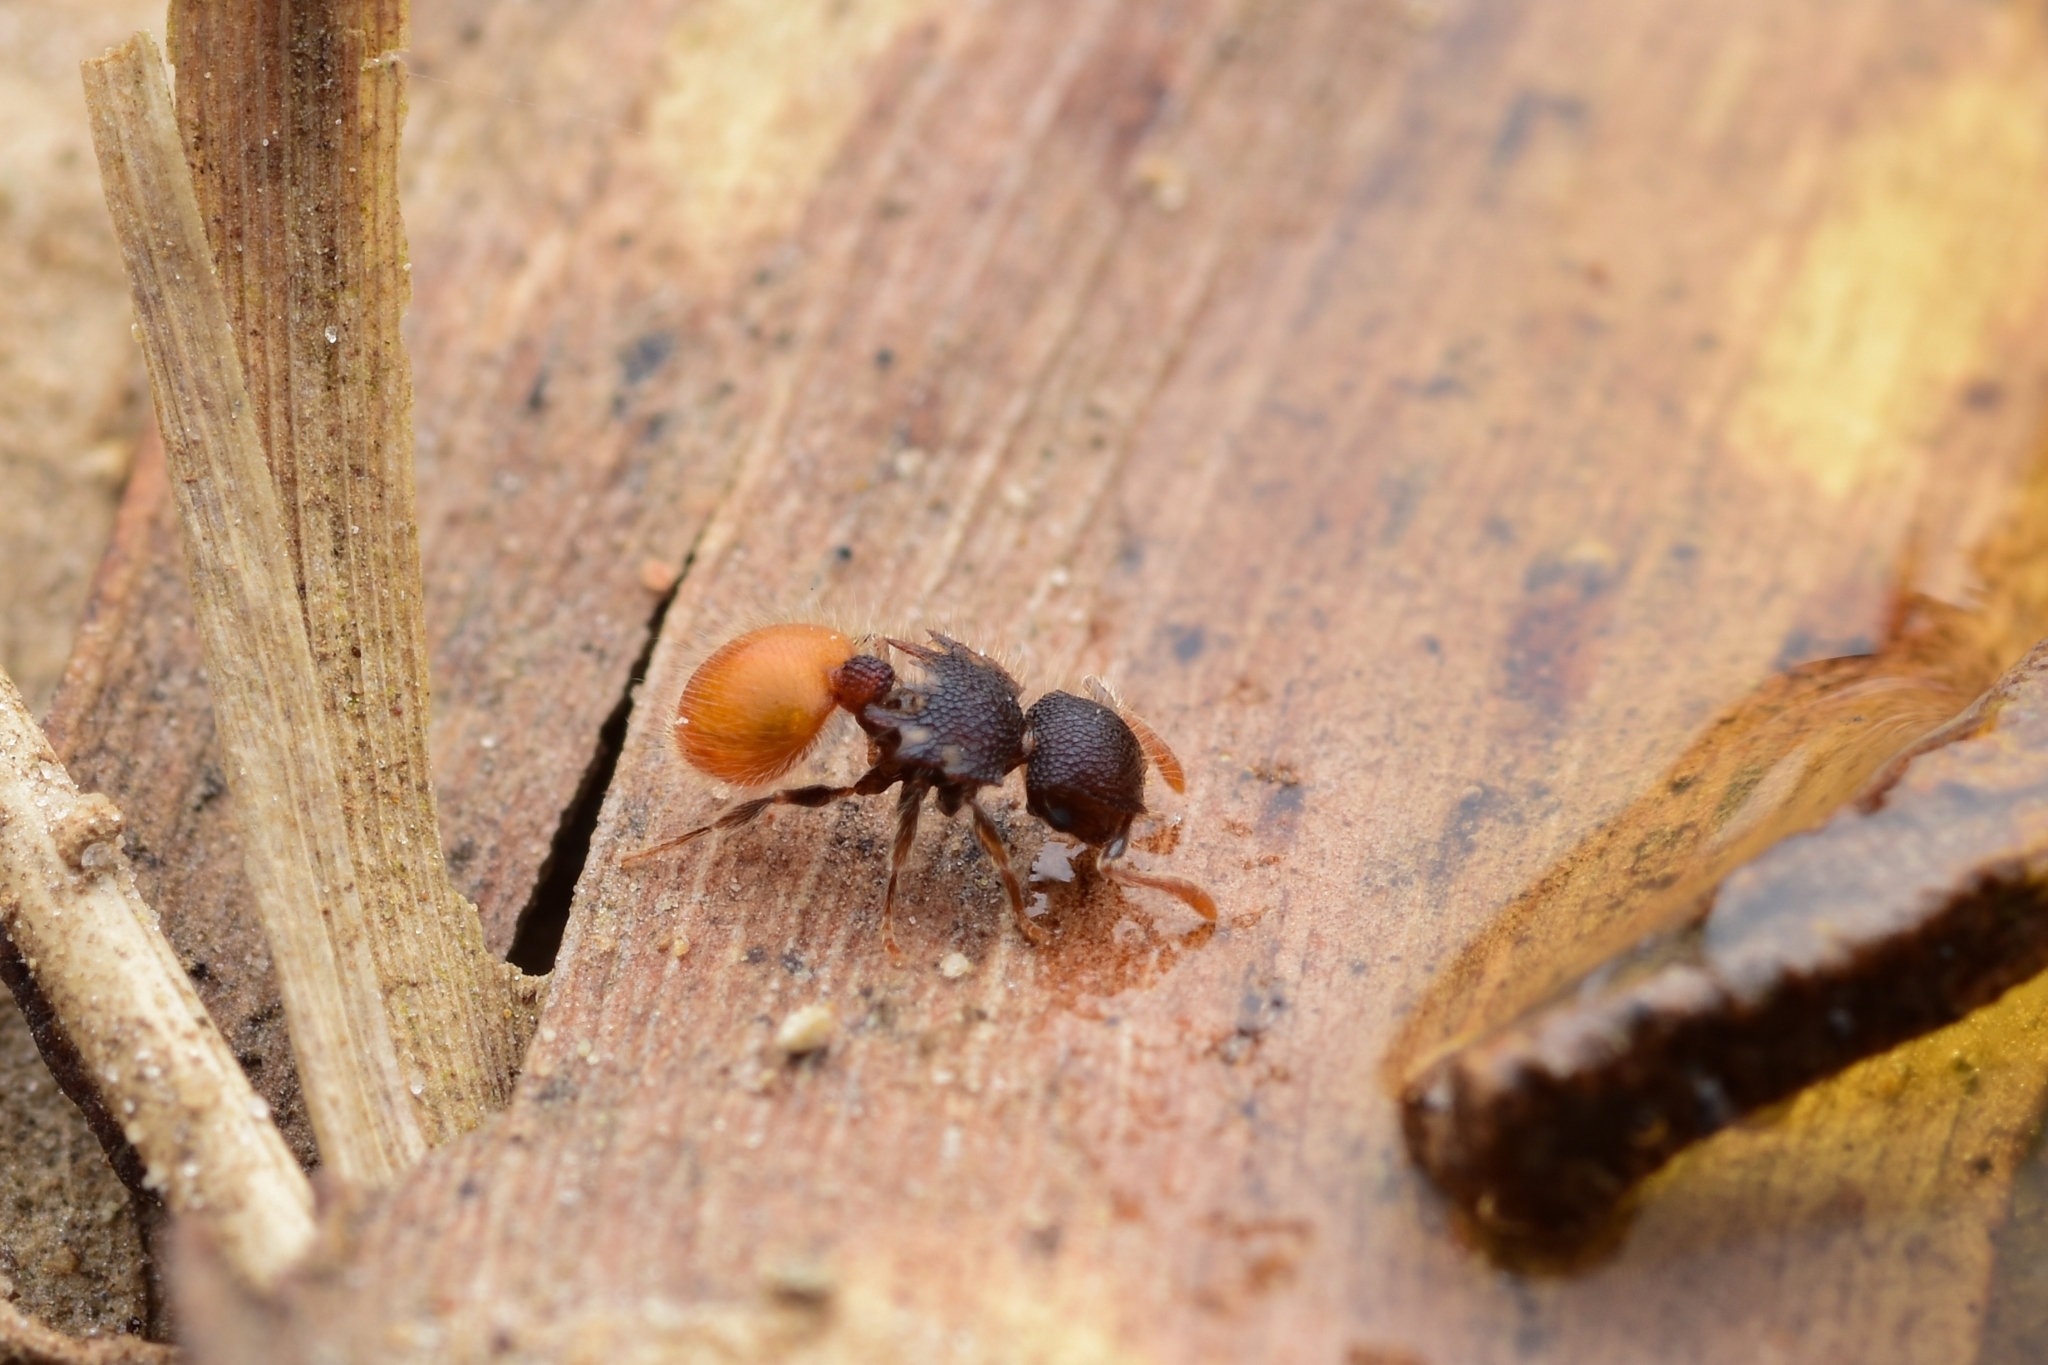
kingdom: Animalia
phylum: Arthropoda
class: Insecta
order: Hymenoptera
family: Formicidae
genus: Meranoplus
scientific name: Meranoplus hirsutus
